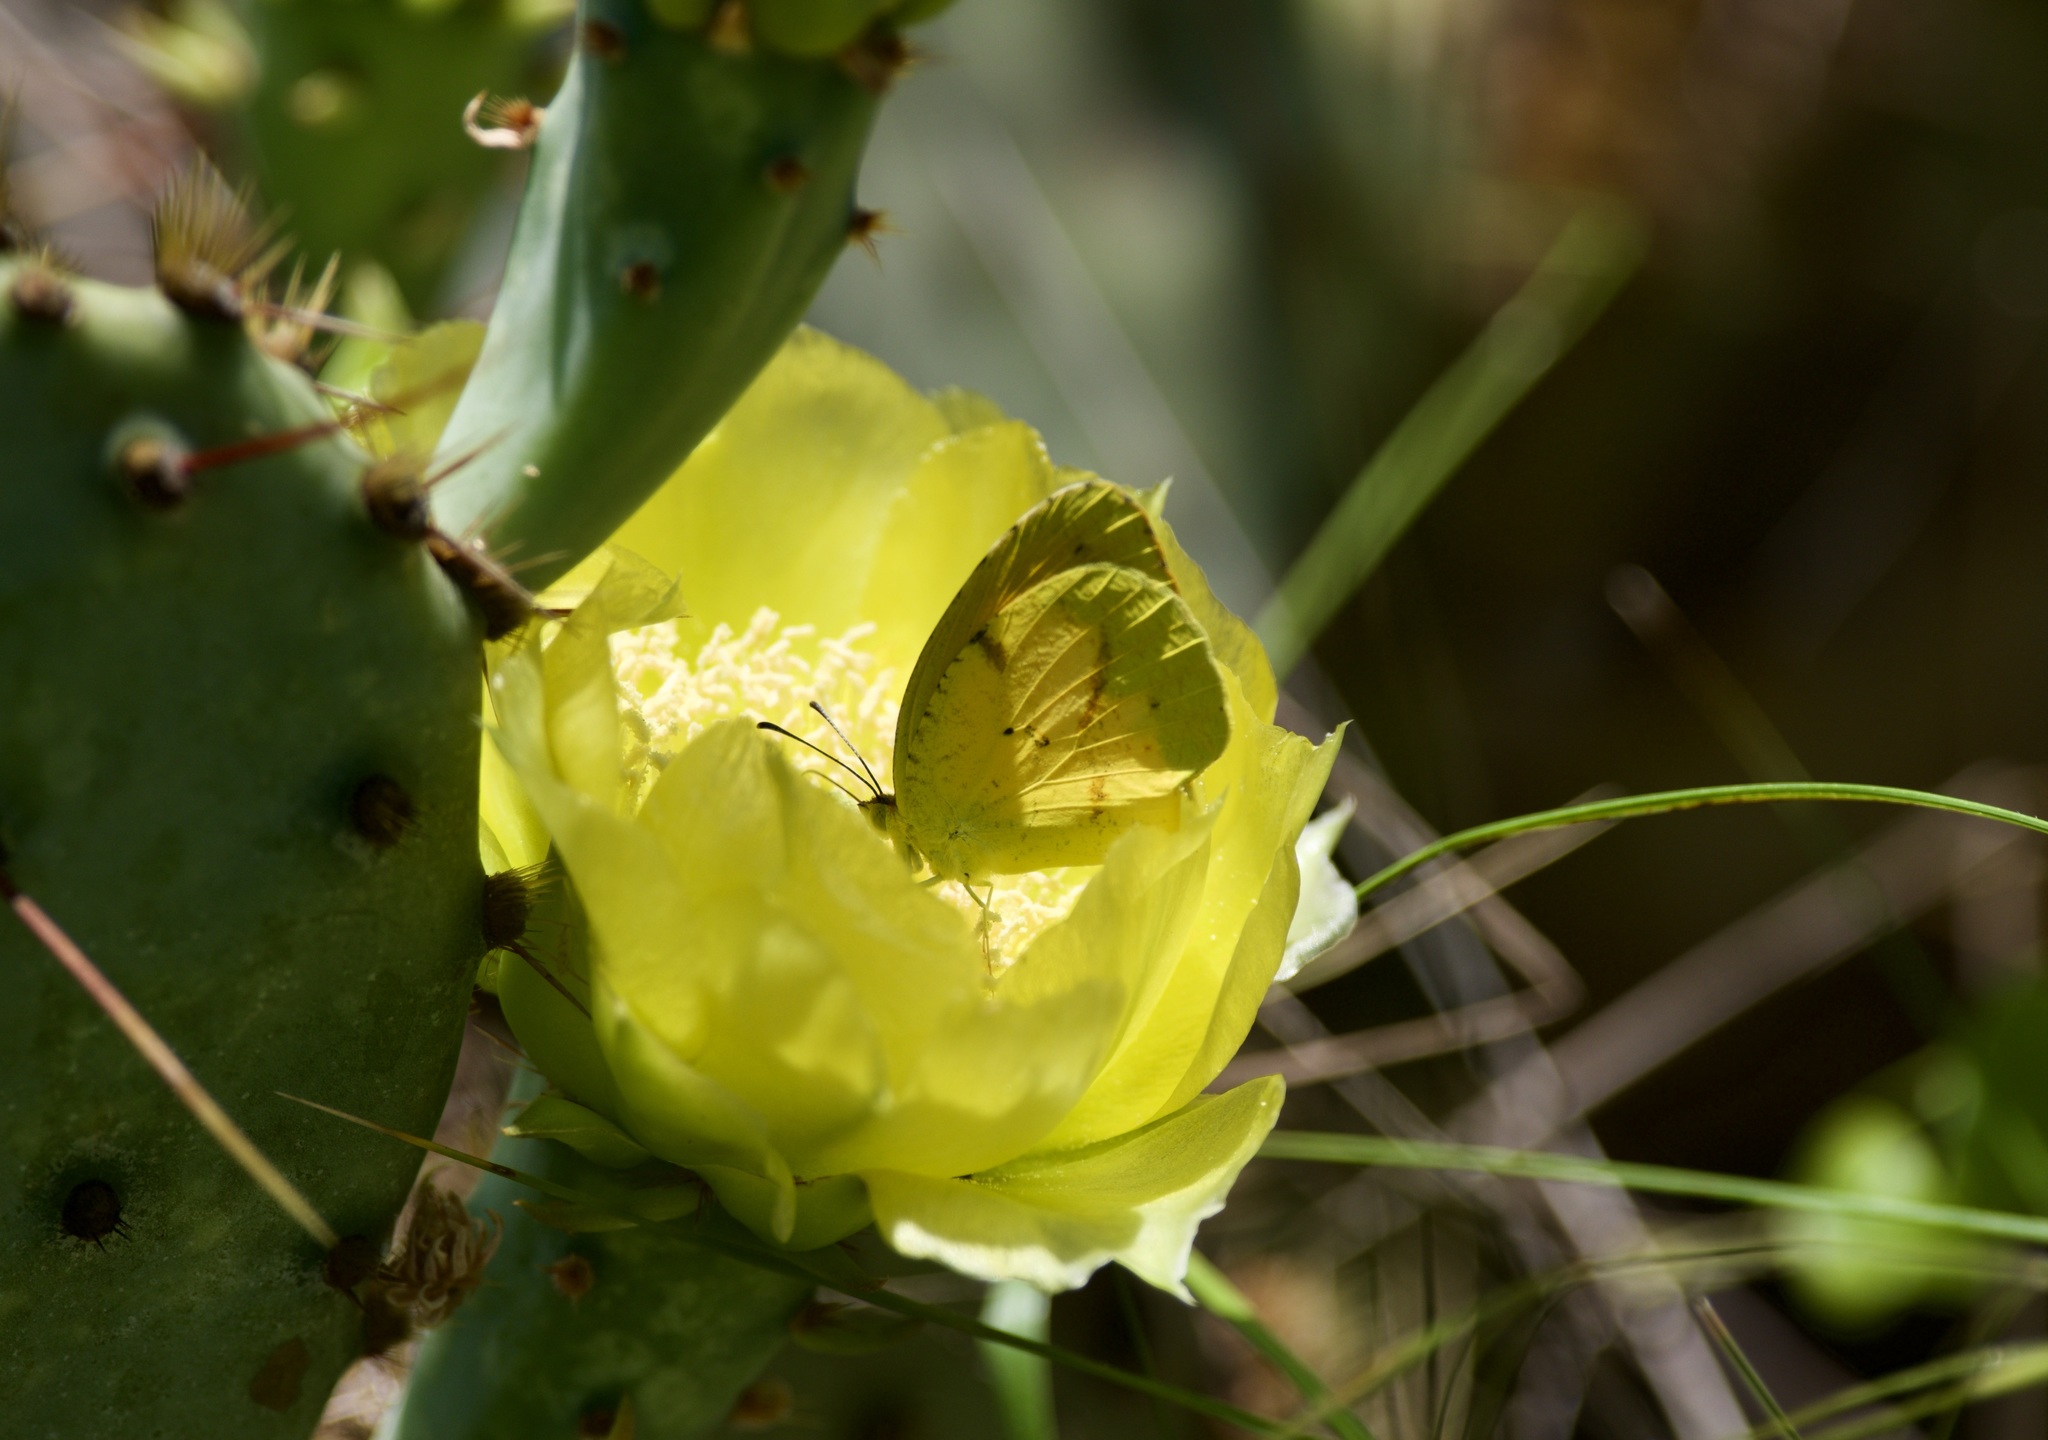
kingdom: Animalia
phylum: Arthropoda
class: Insecta
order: Lepidoptera
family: Pieridae
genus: Abaeis
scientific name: Abaeis nicippe
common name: Sleepy orange
